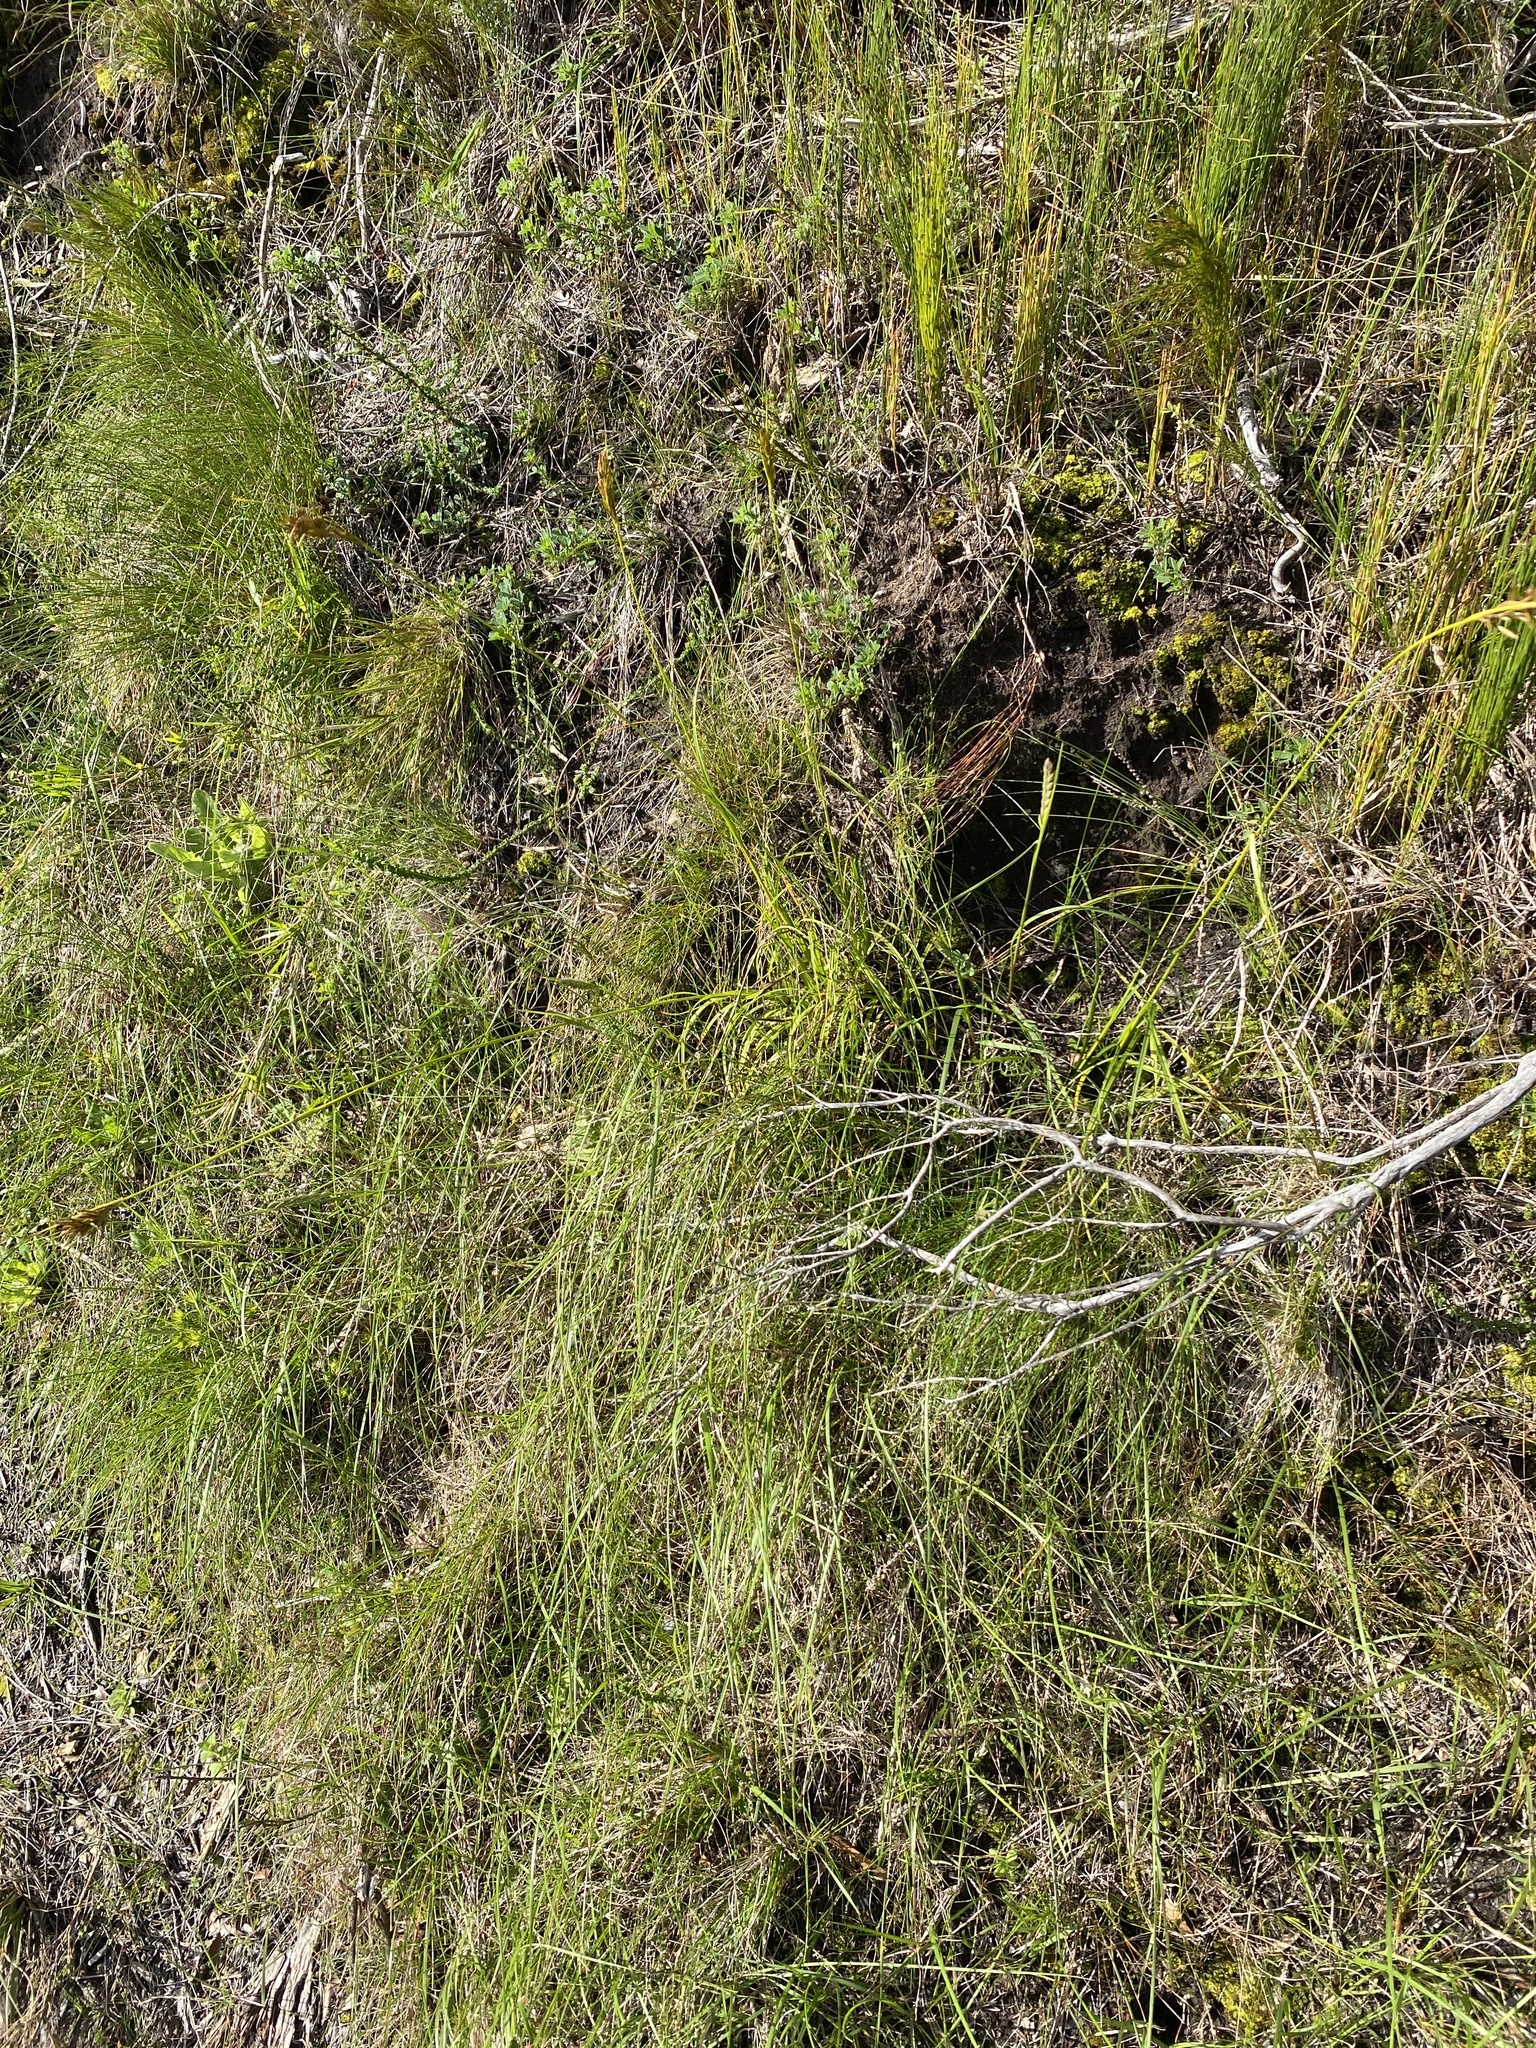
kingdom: Plantae
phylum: Tracheophyta
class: Liliopsida
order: Poales
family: Cyperaceae
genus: Carex
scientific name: Carex capensis
